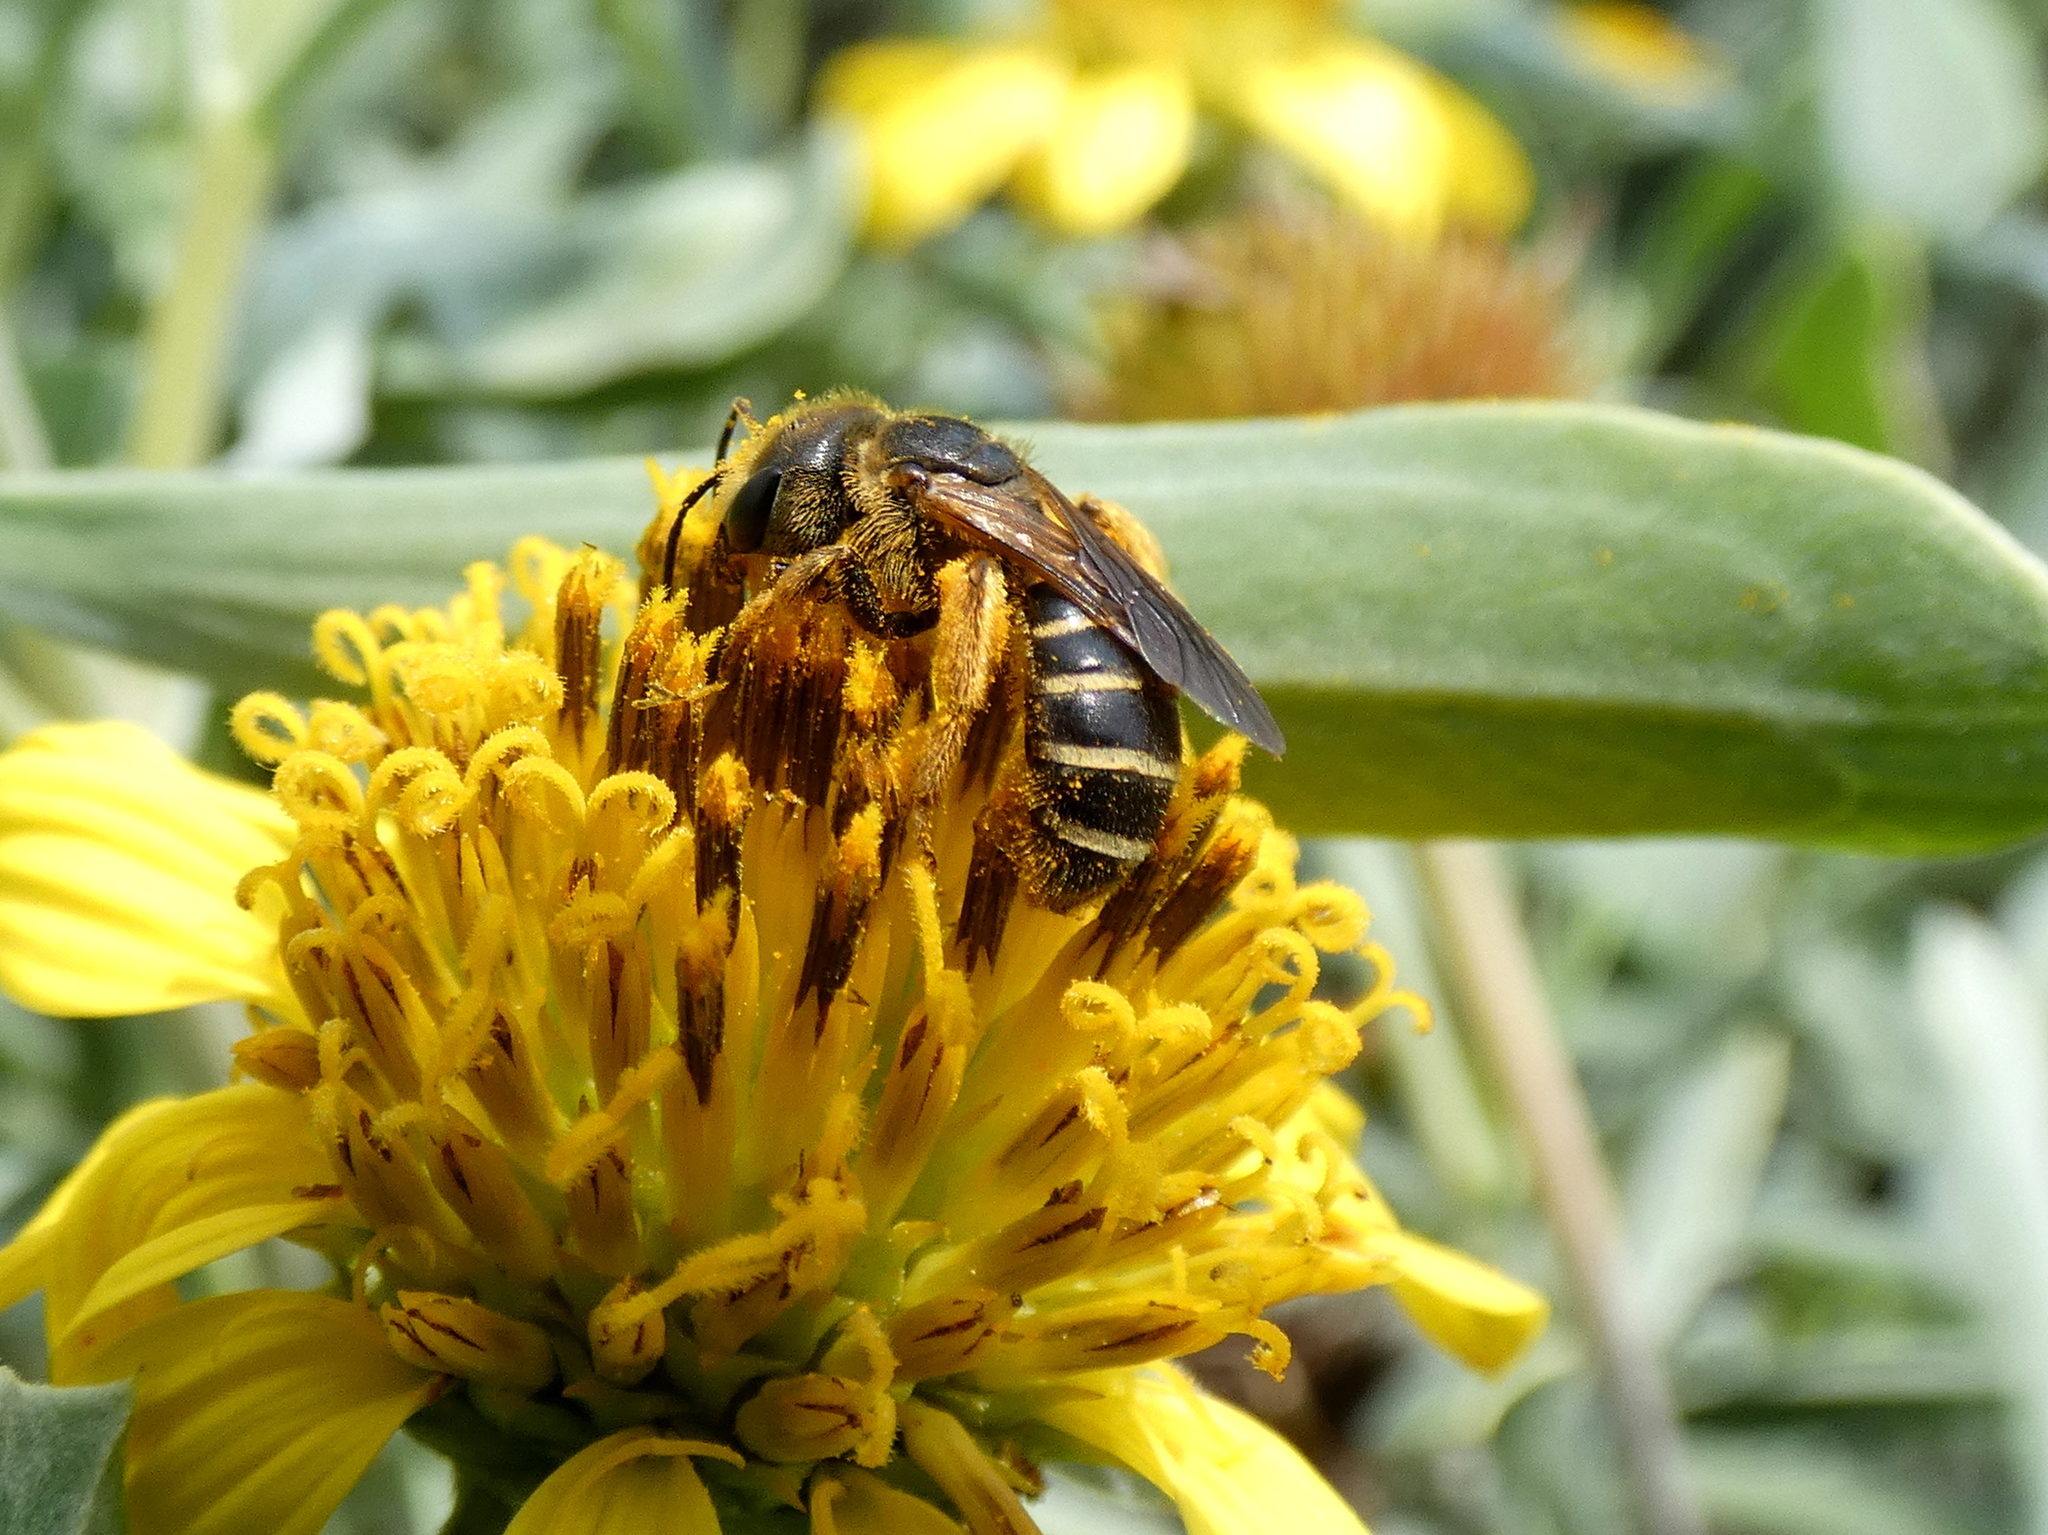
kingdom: Animalia
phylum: Arthropoda
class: Insecta
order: Hymenoptera
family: Halictidae
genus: Halictus
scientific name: Halictus poeyi
